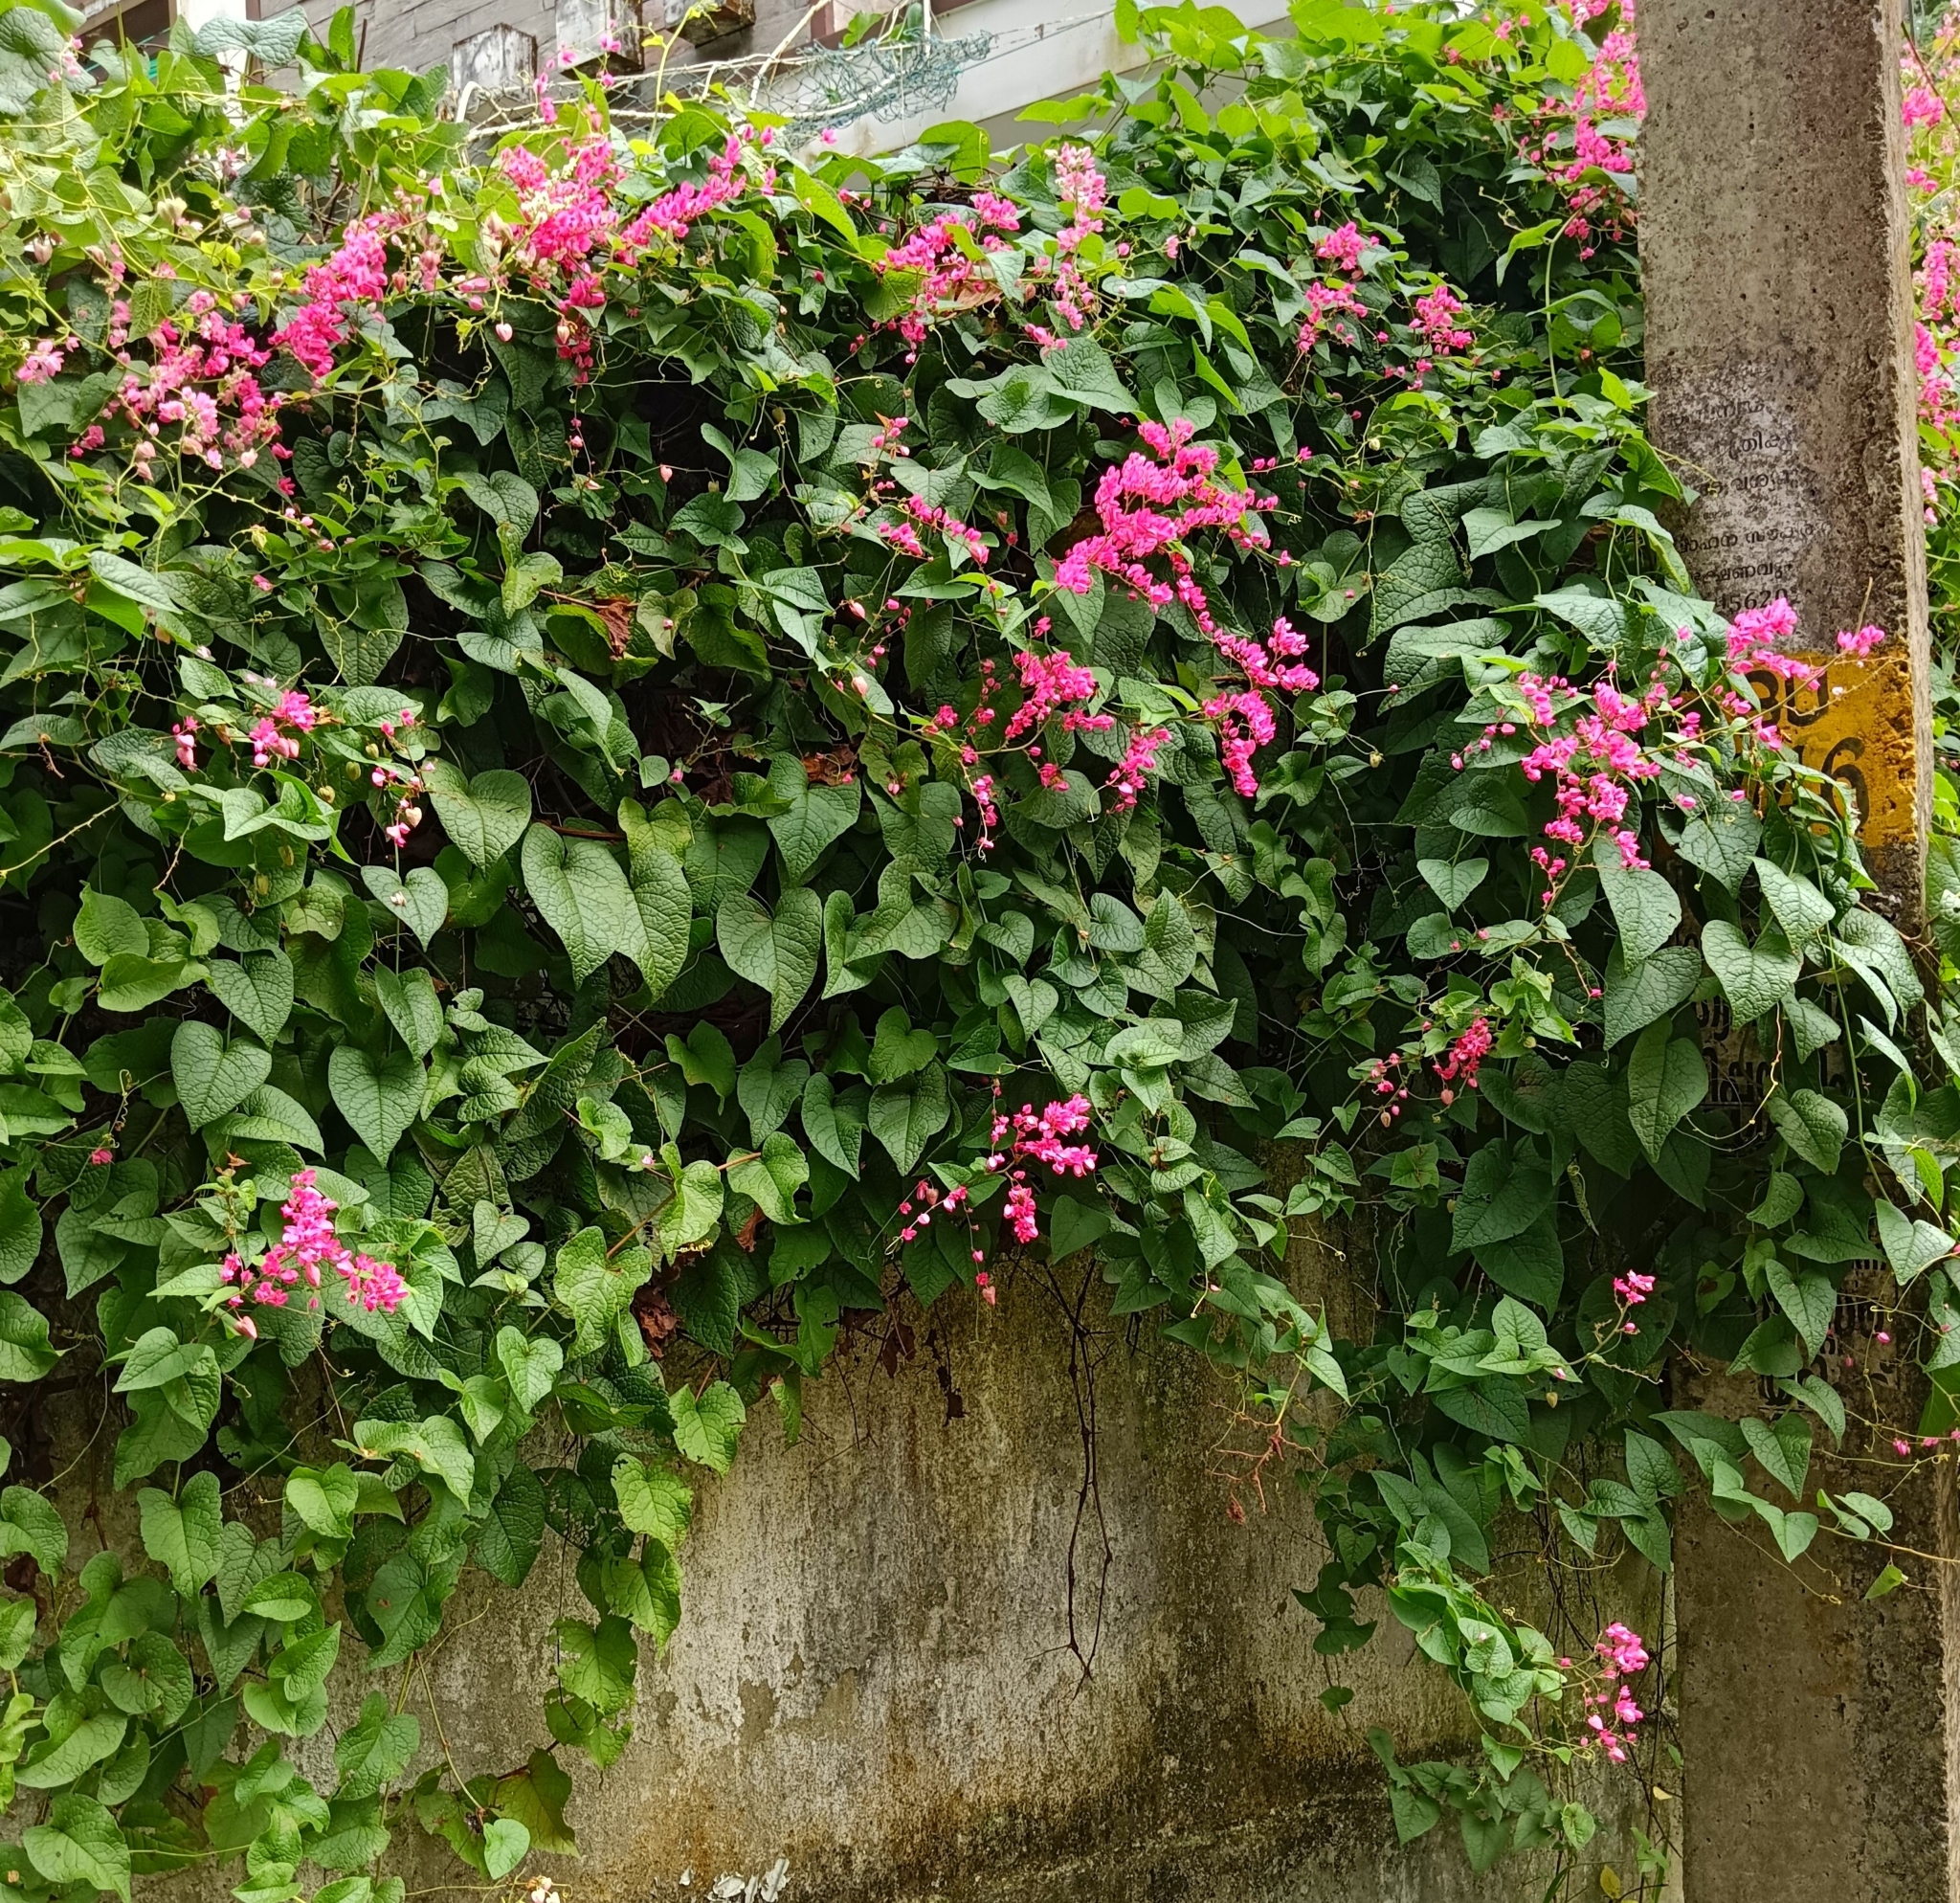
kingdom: Plantae
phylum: Tracheophyta
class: Magnoliopsida
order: Caryophyllales
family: Polygonaceae
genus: Antigonon
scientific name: Antigonon leptopus
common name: Coral vine
